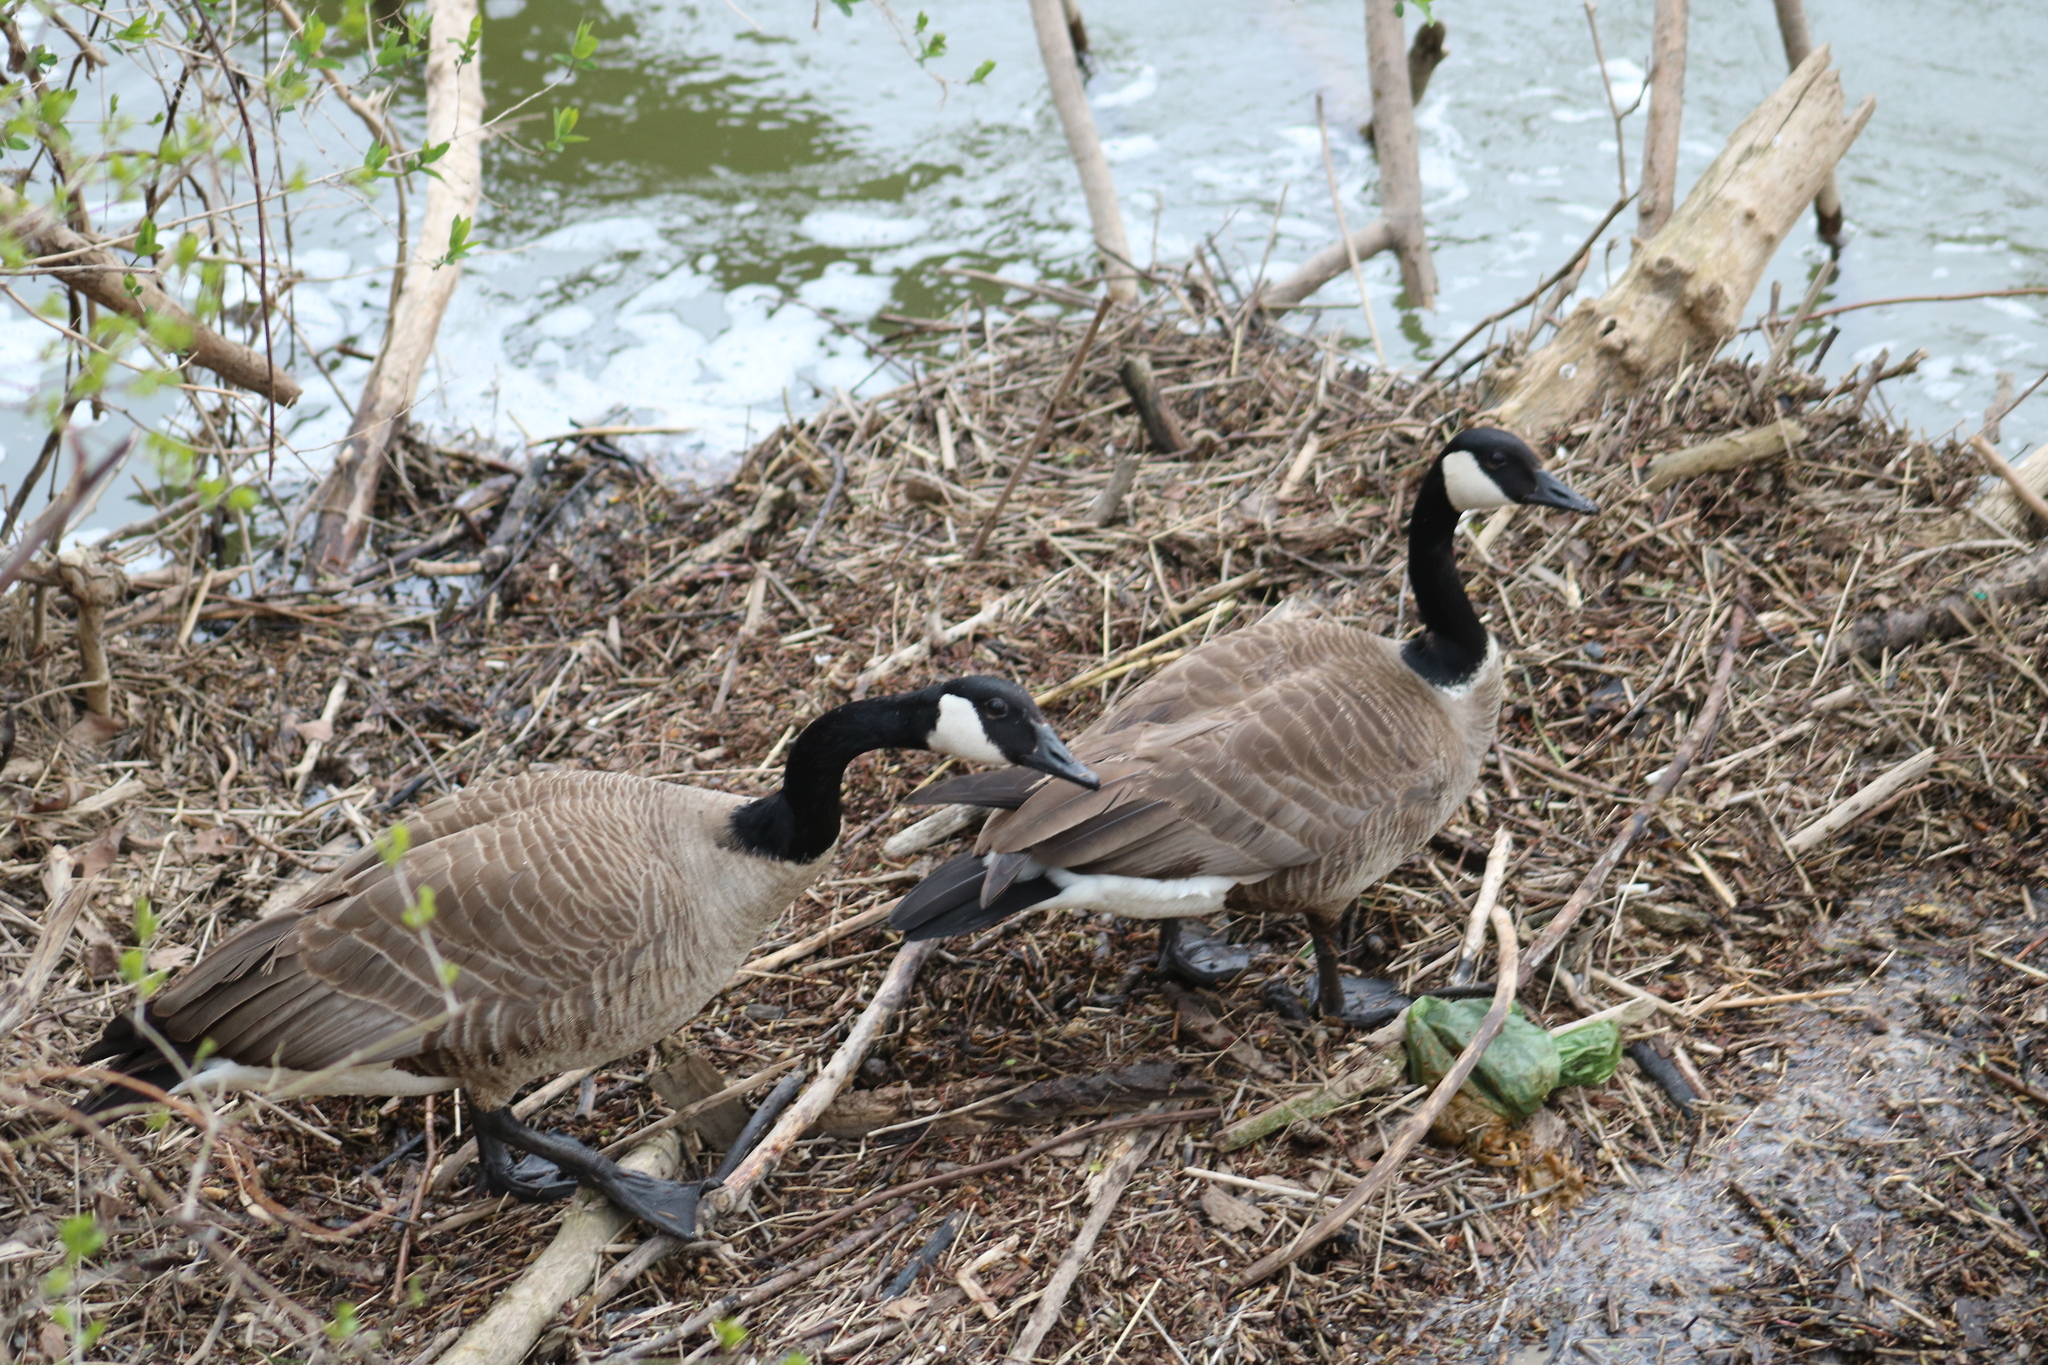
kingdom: Animalia
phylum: Chordata
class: Aves
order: Anseriformes
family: Anatidae
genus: Branta
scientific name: Branta canadensis
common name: Canada goose
